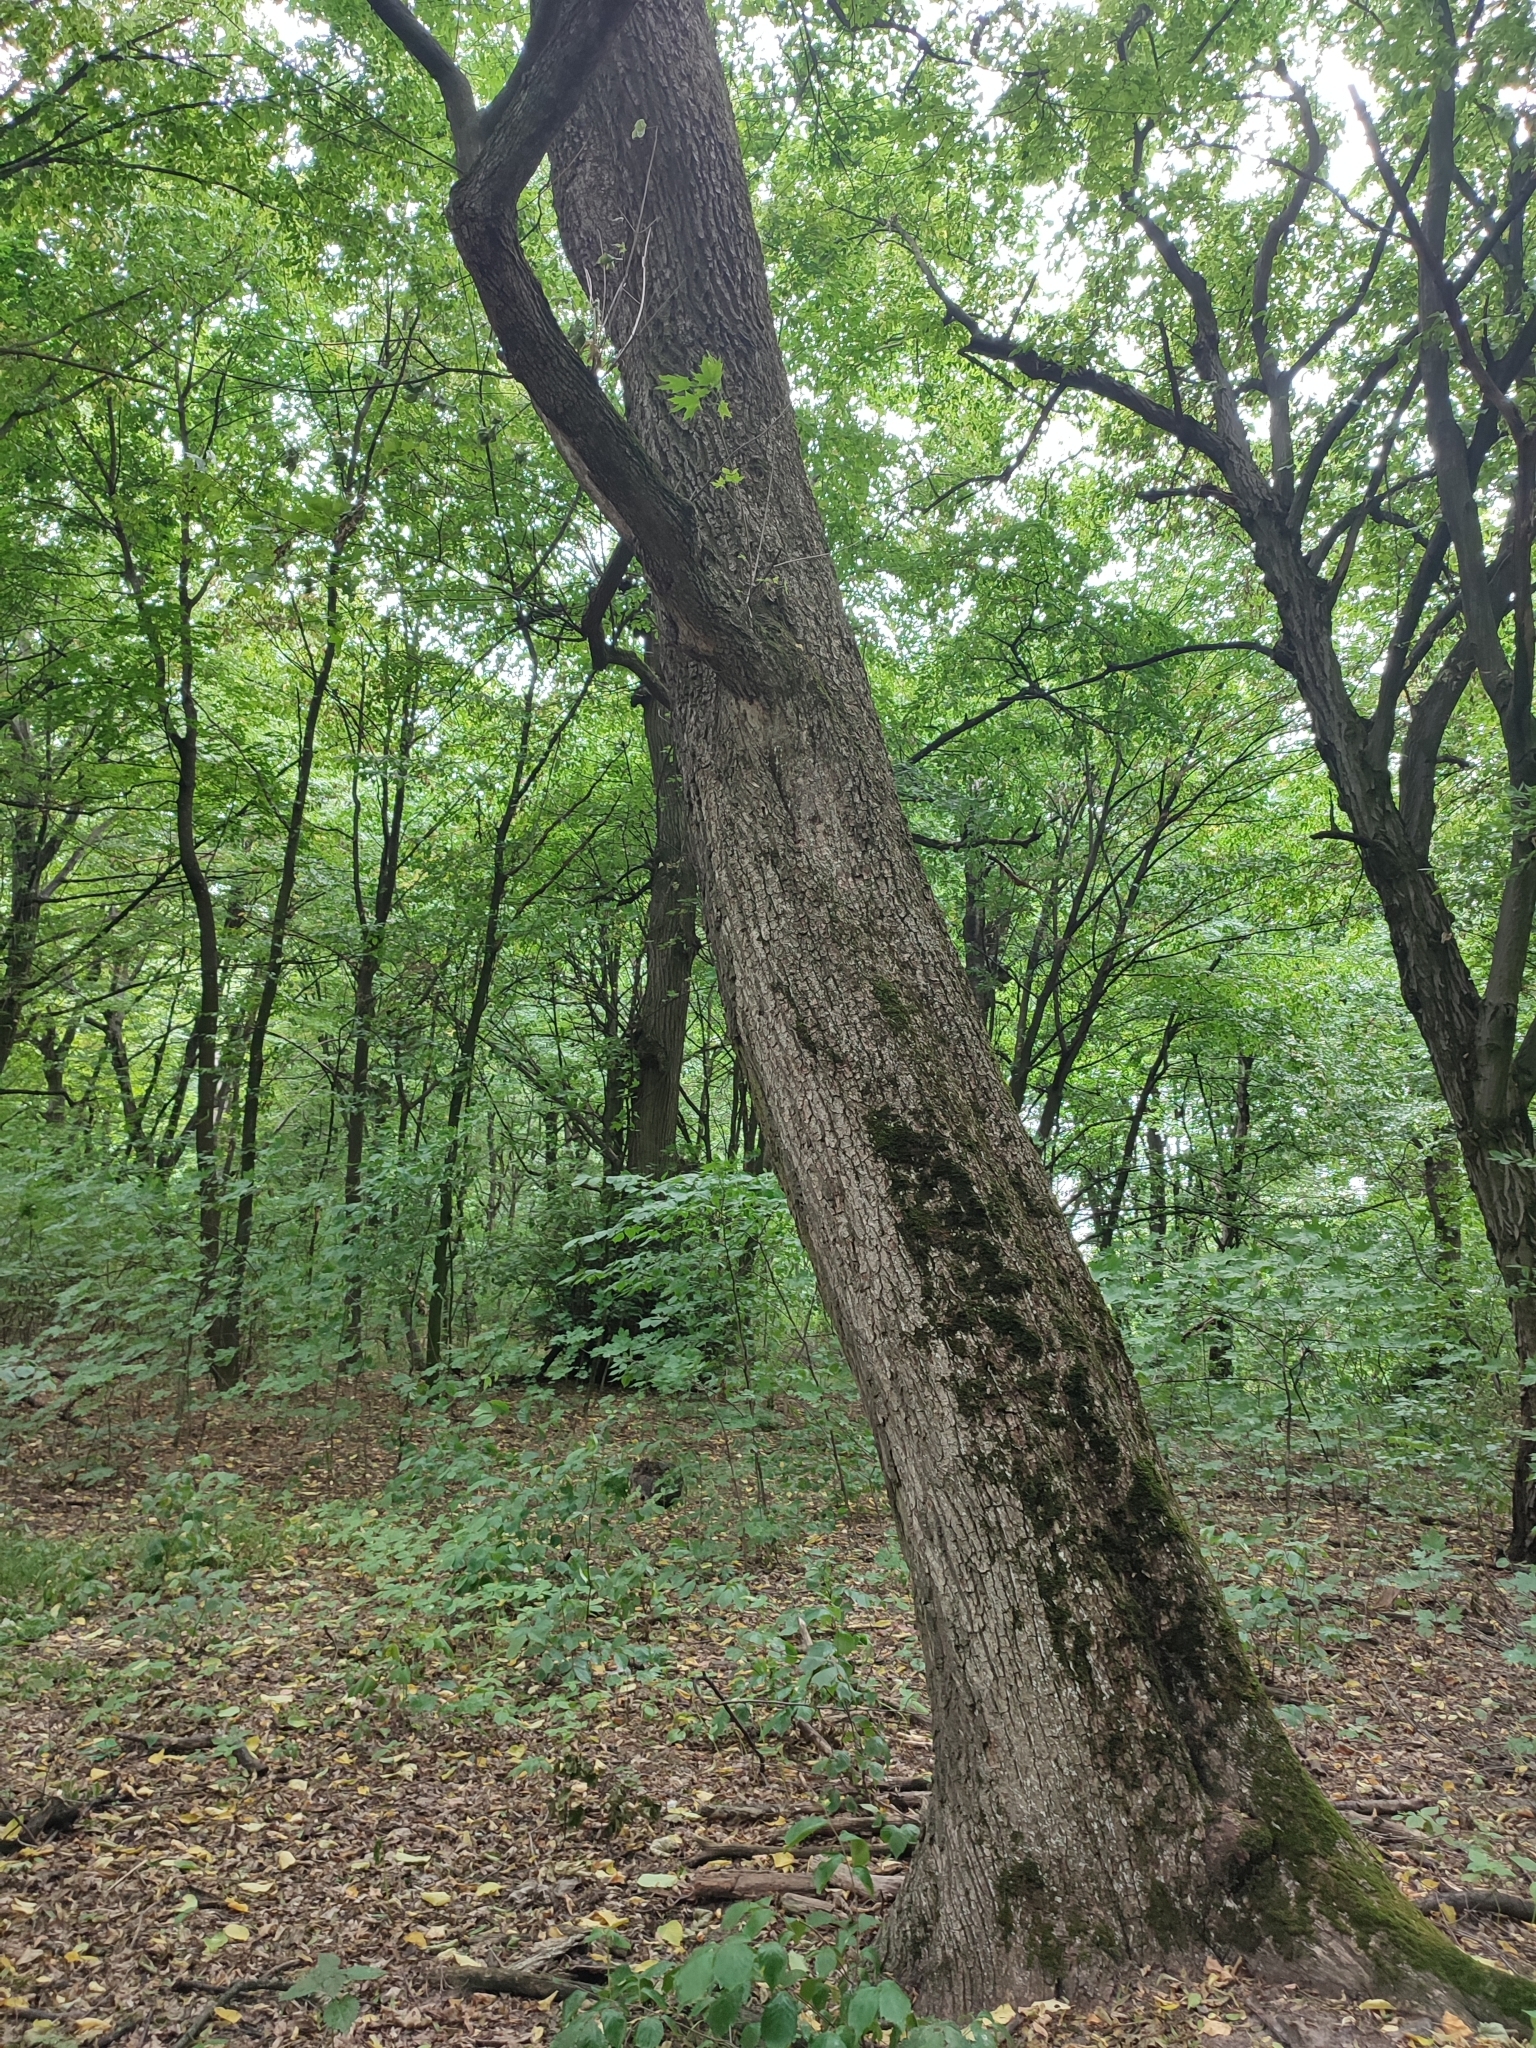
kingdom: Plantae
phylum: Tracheophyta
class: Magnoliopsida
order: Sapindales
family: Sapindaceae
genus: Acer
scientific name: Acer platanoides
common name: Norway maple
